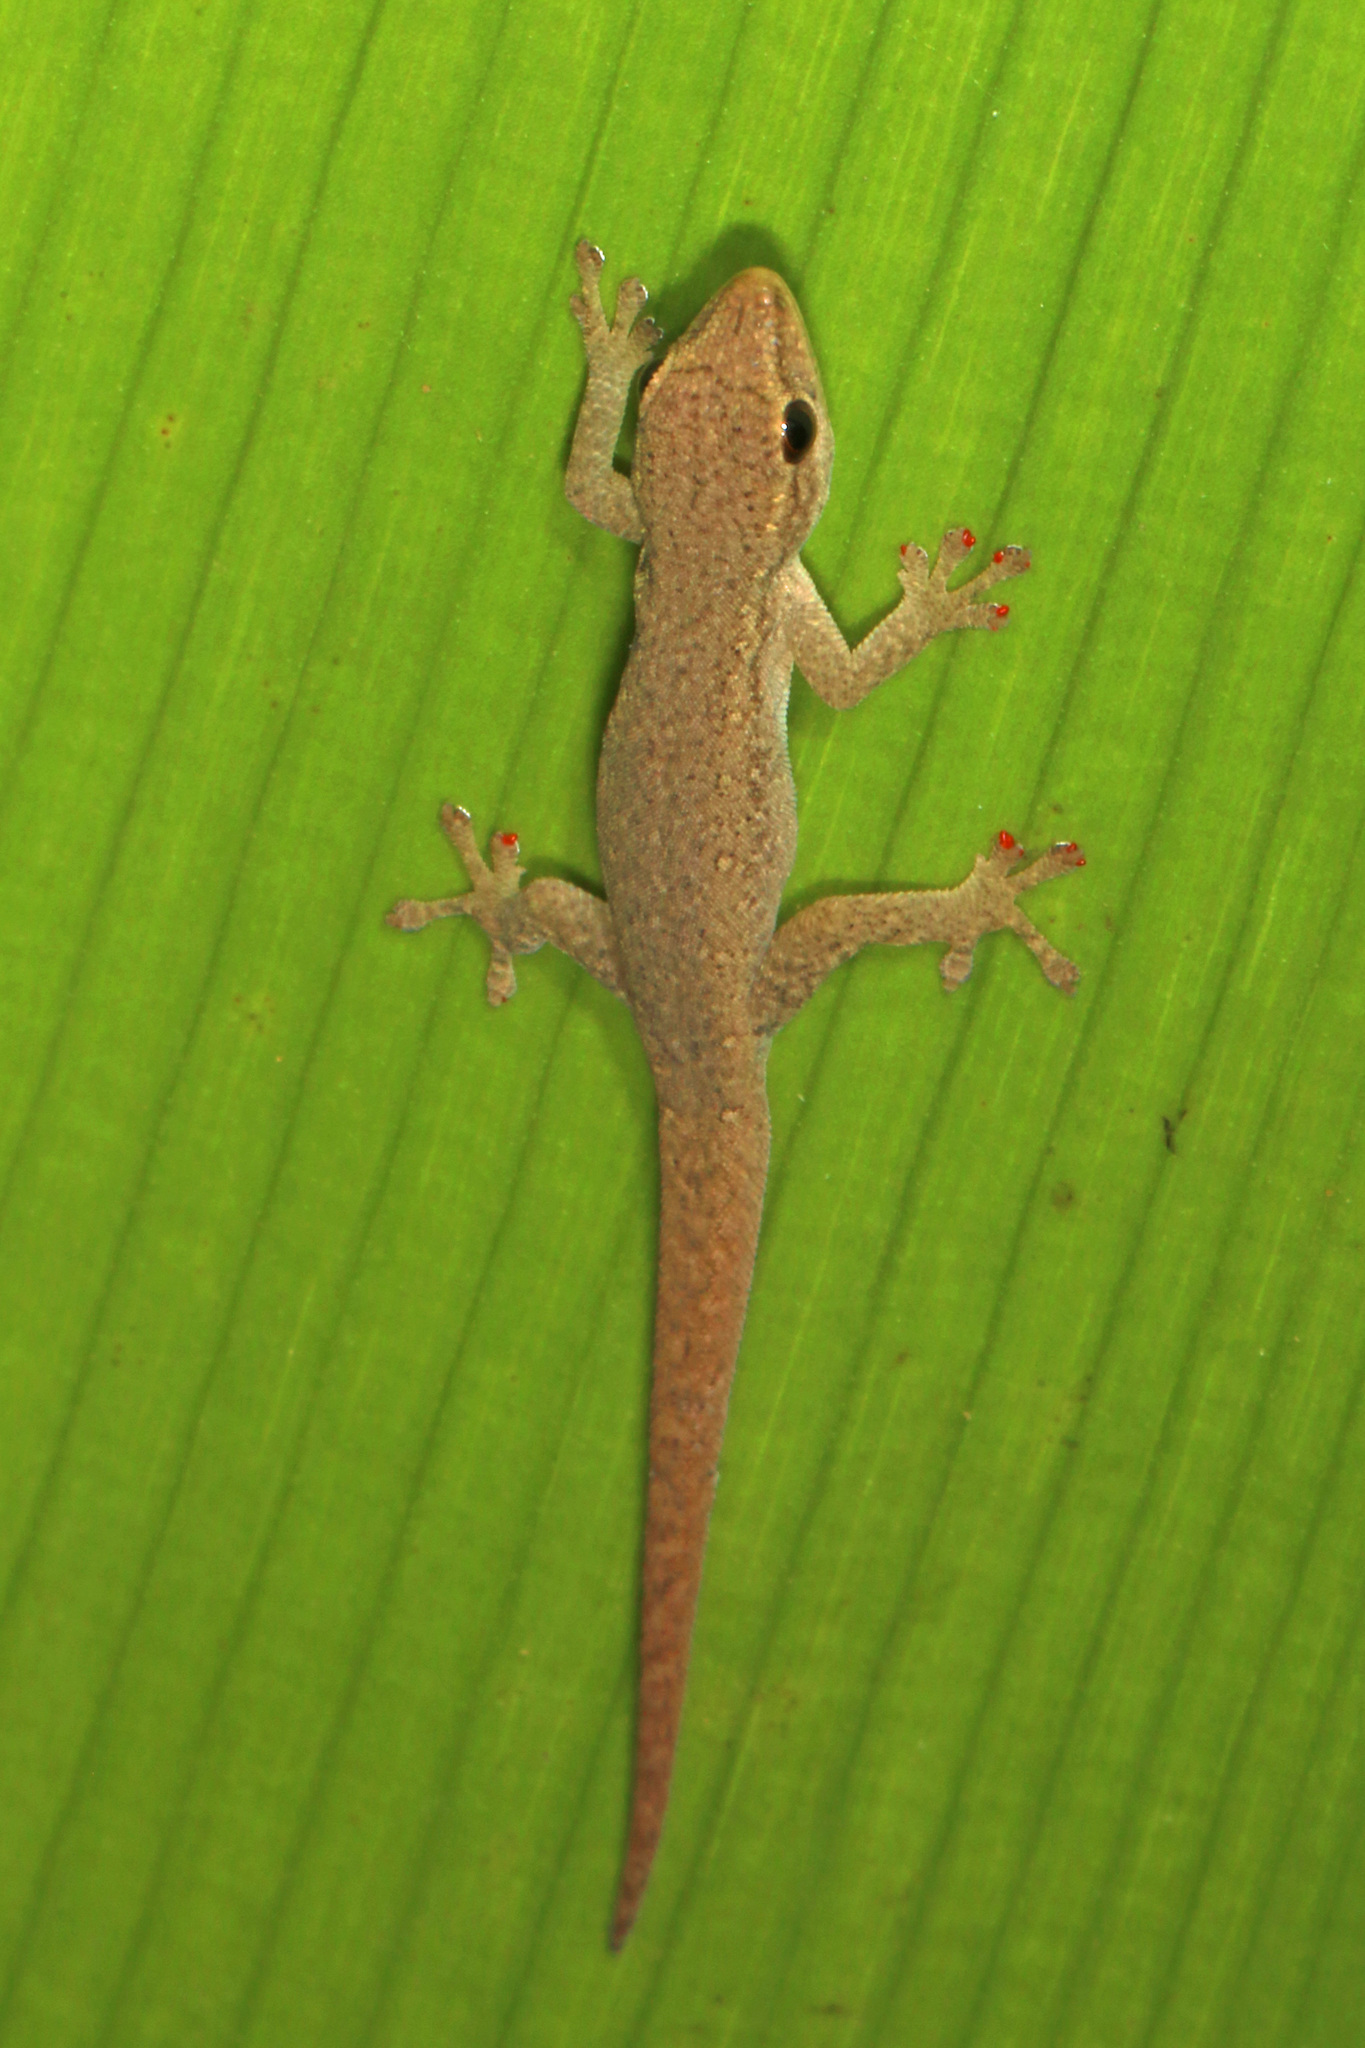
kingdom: Animalia
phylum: Chordata
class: Squamata
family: Gekkonidae
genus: Lygodactylus
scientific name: Lygodactylus capensis
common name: Cape dwarf gecko
